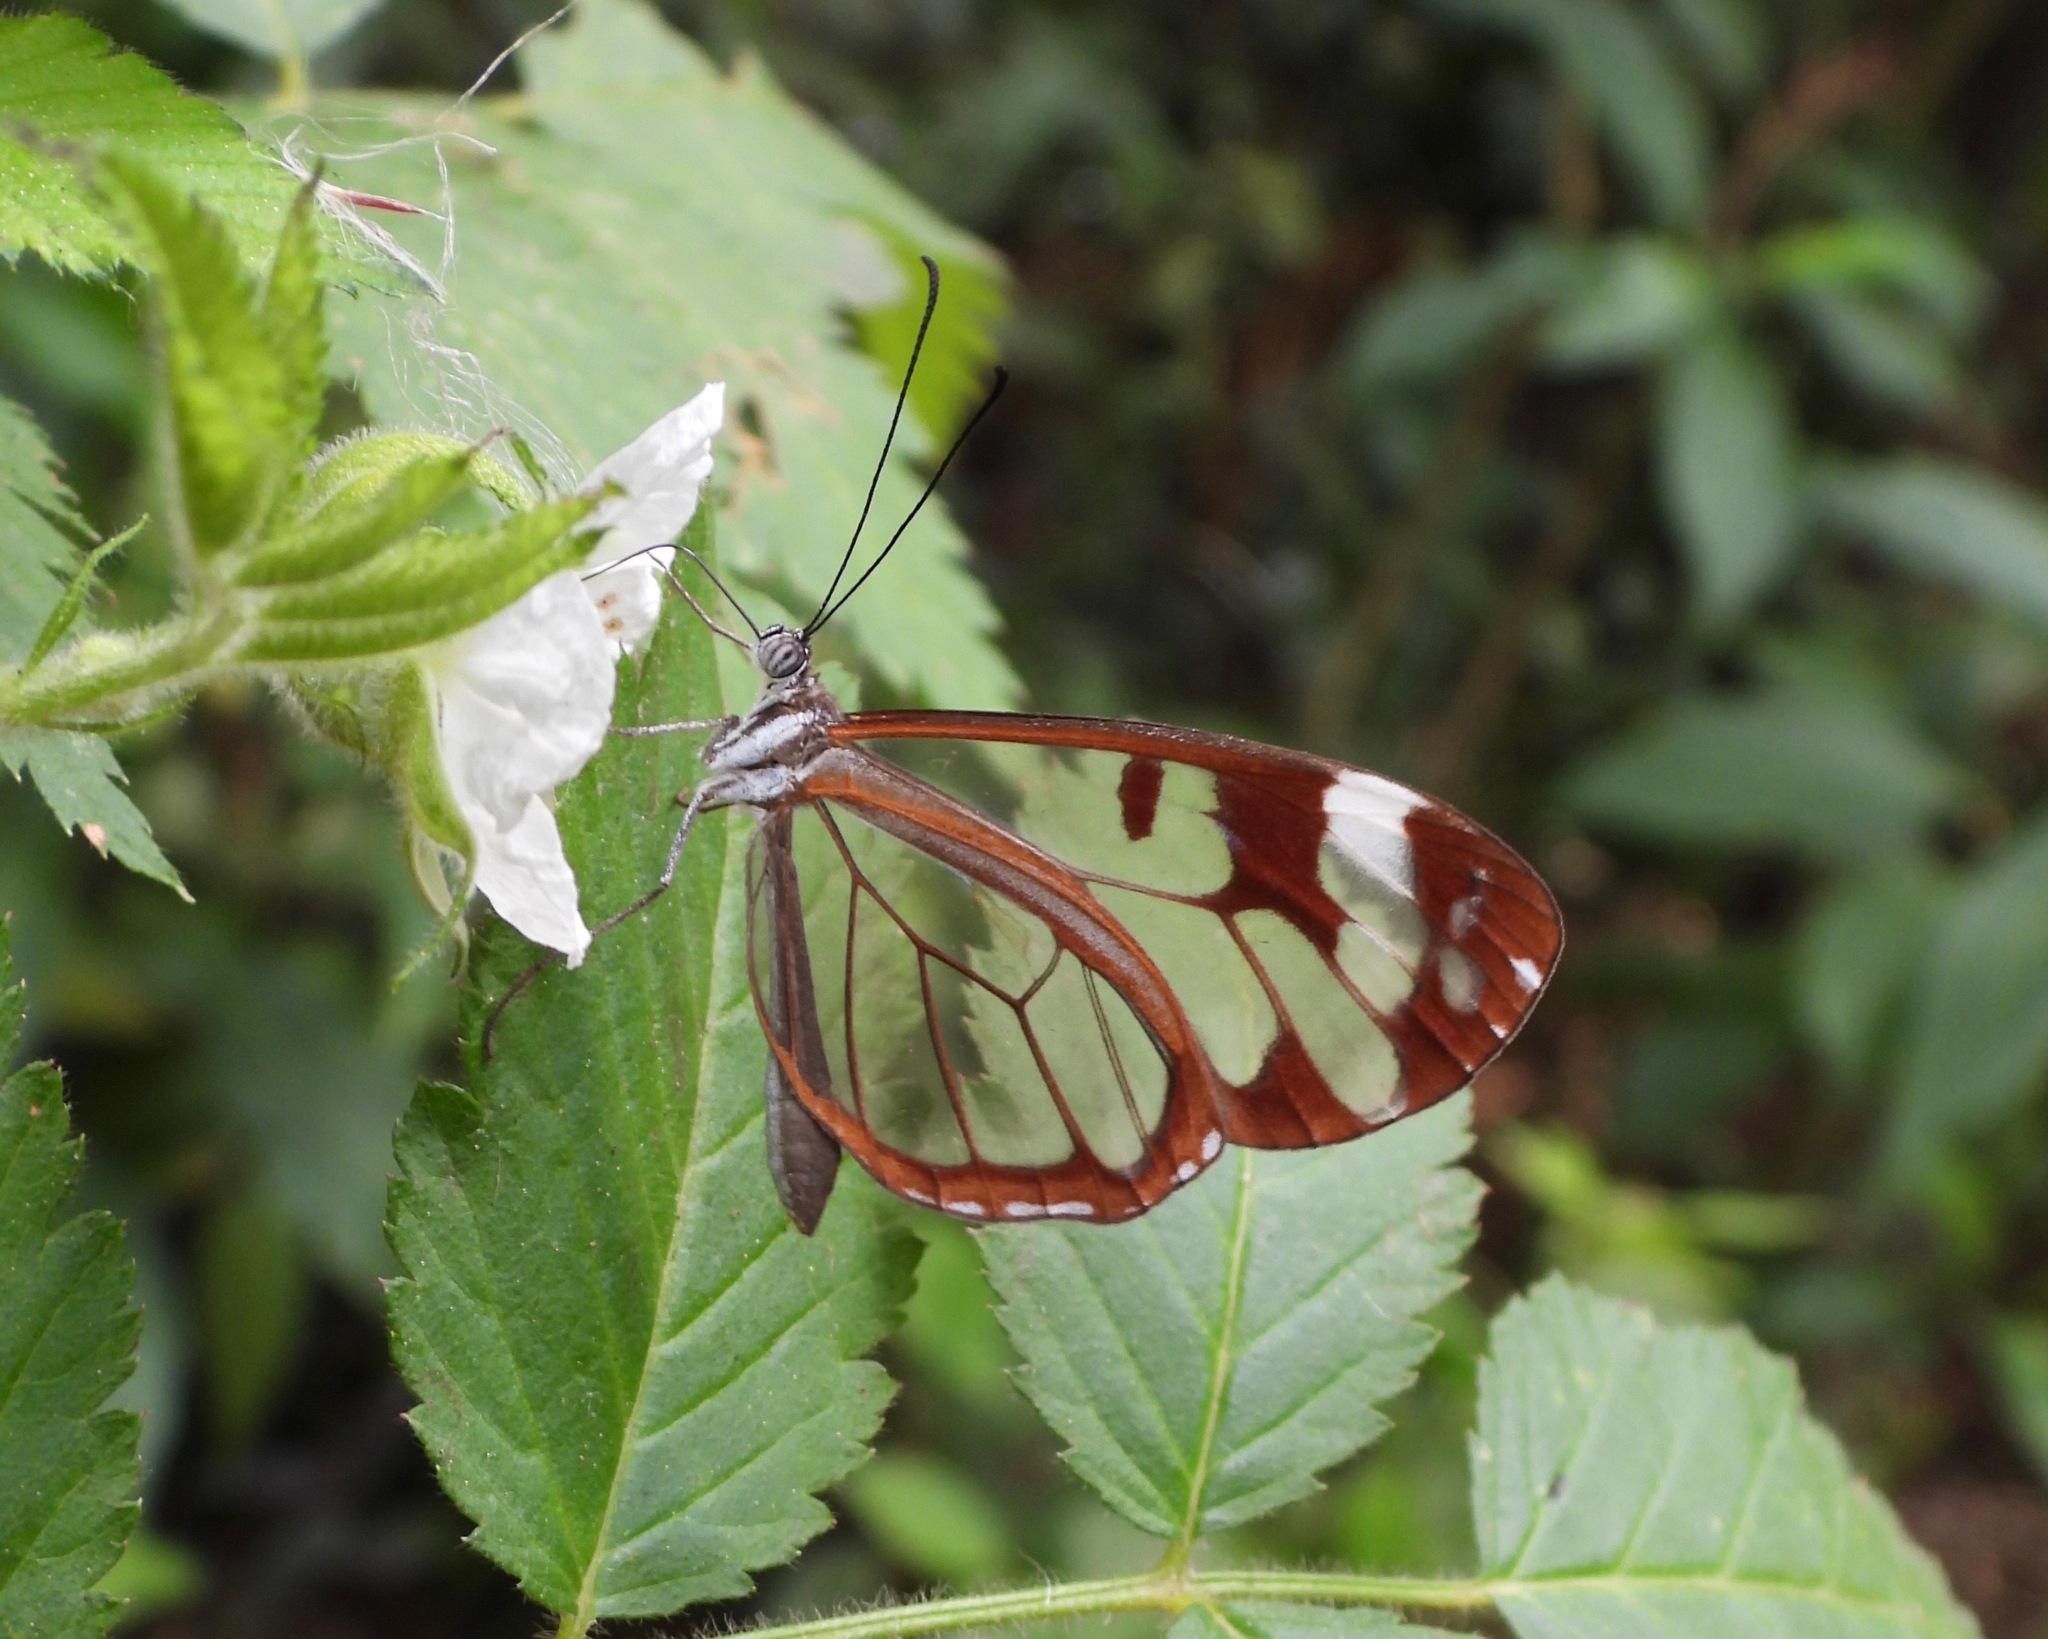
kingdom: Animalia
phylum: Arthropoda
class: Insecta
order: Lepidoptera
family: Nymphalidae
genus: Oleria
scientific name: Oleria zea
